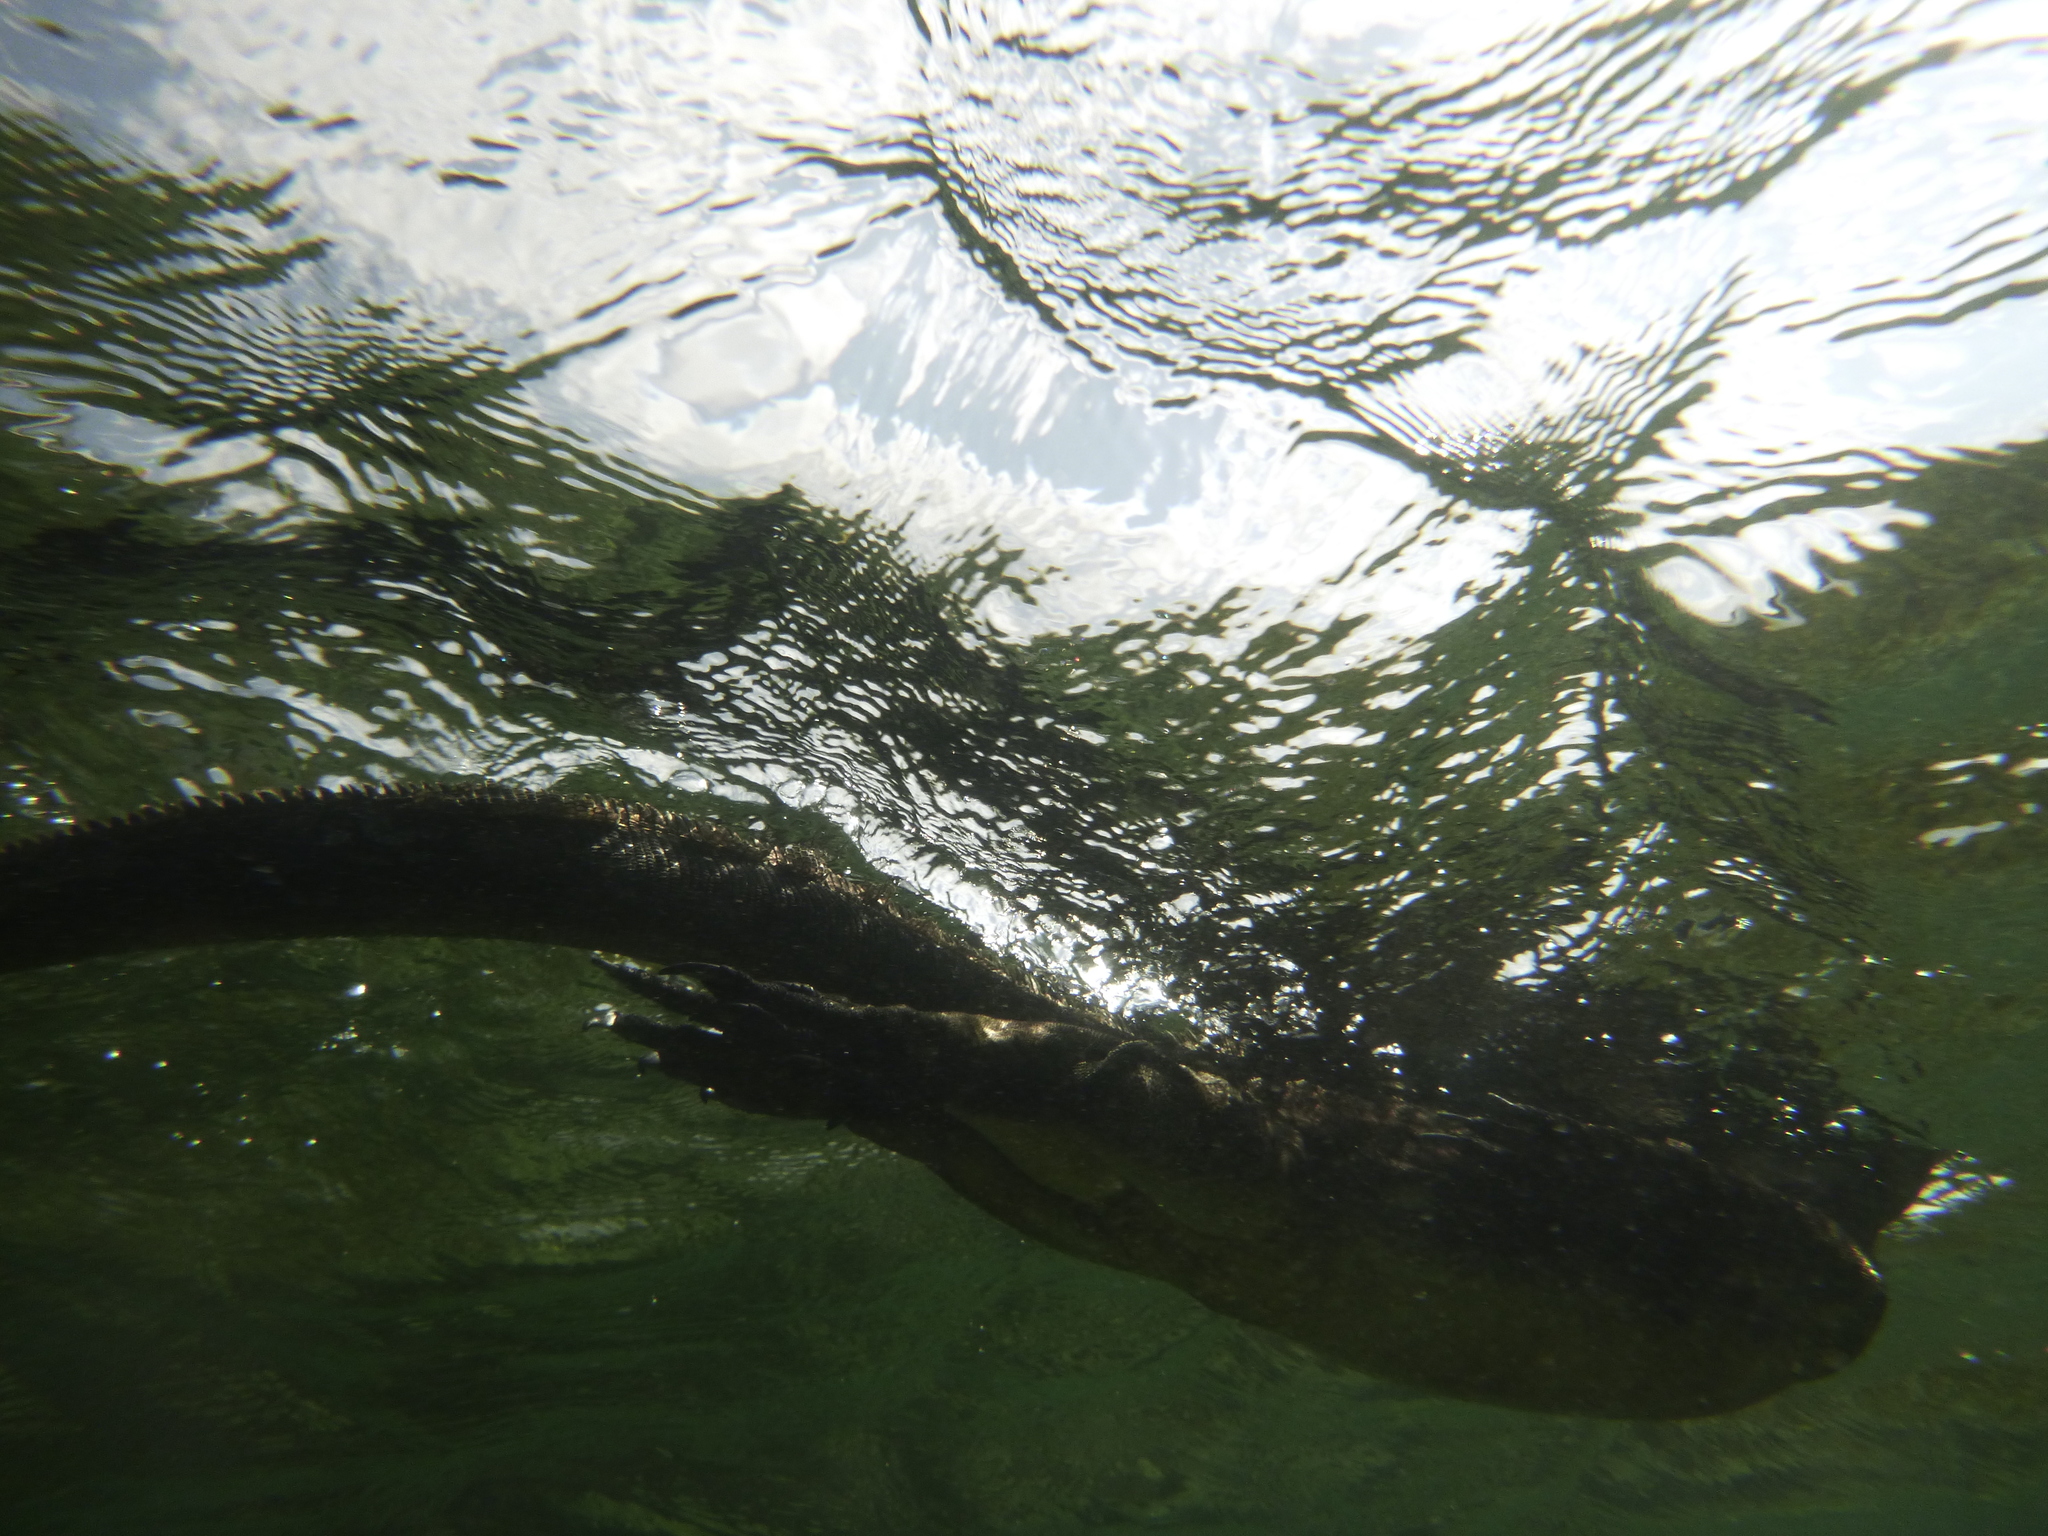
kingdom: Animalia
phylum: Chordata
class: Squamata
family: Iguanidae
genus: Amblyrhynchus
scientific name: Amblyrhynchus cristatus
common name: Marine iguana
